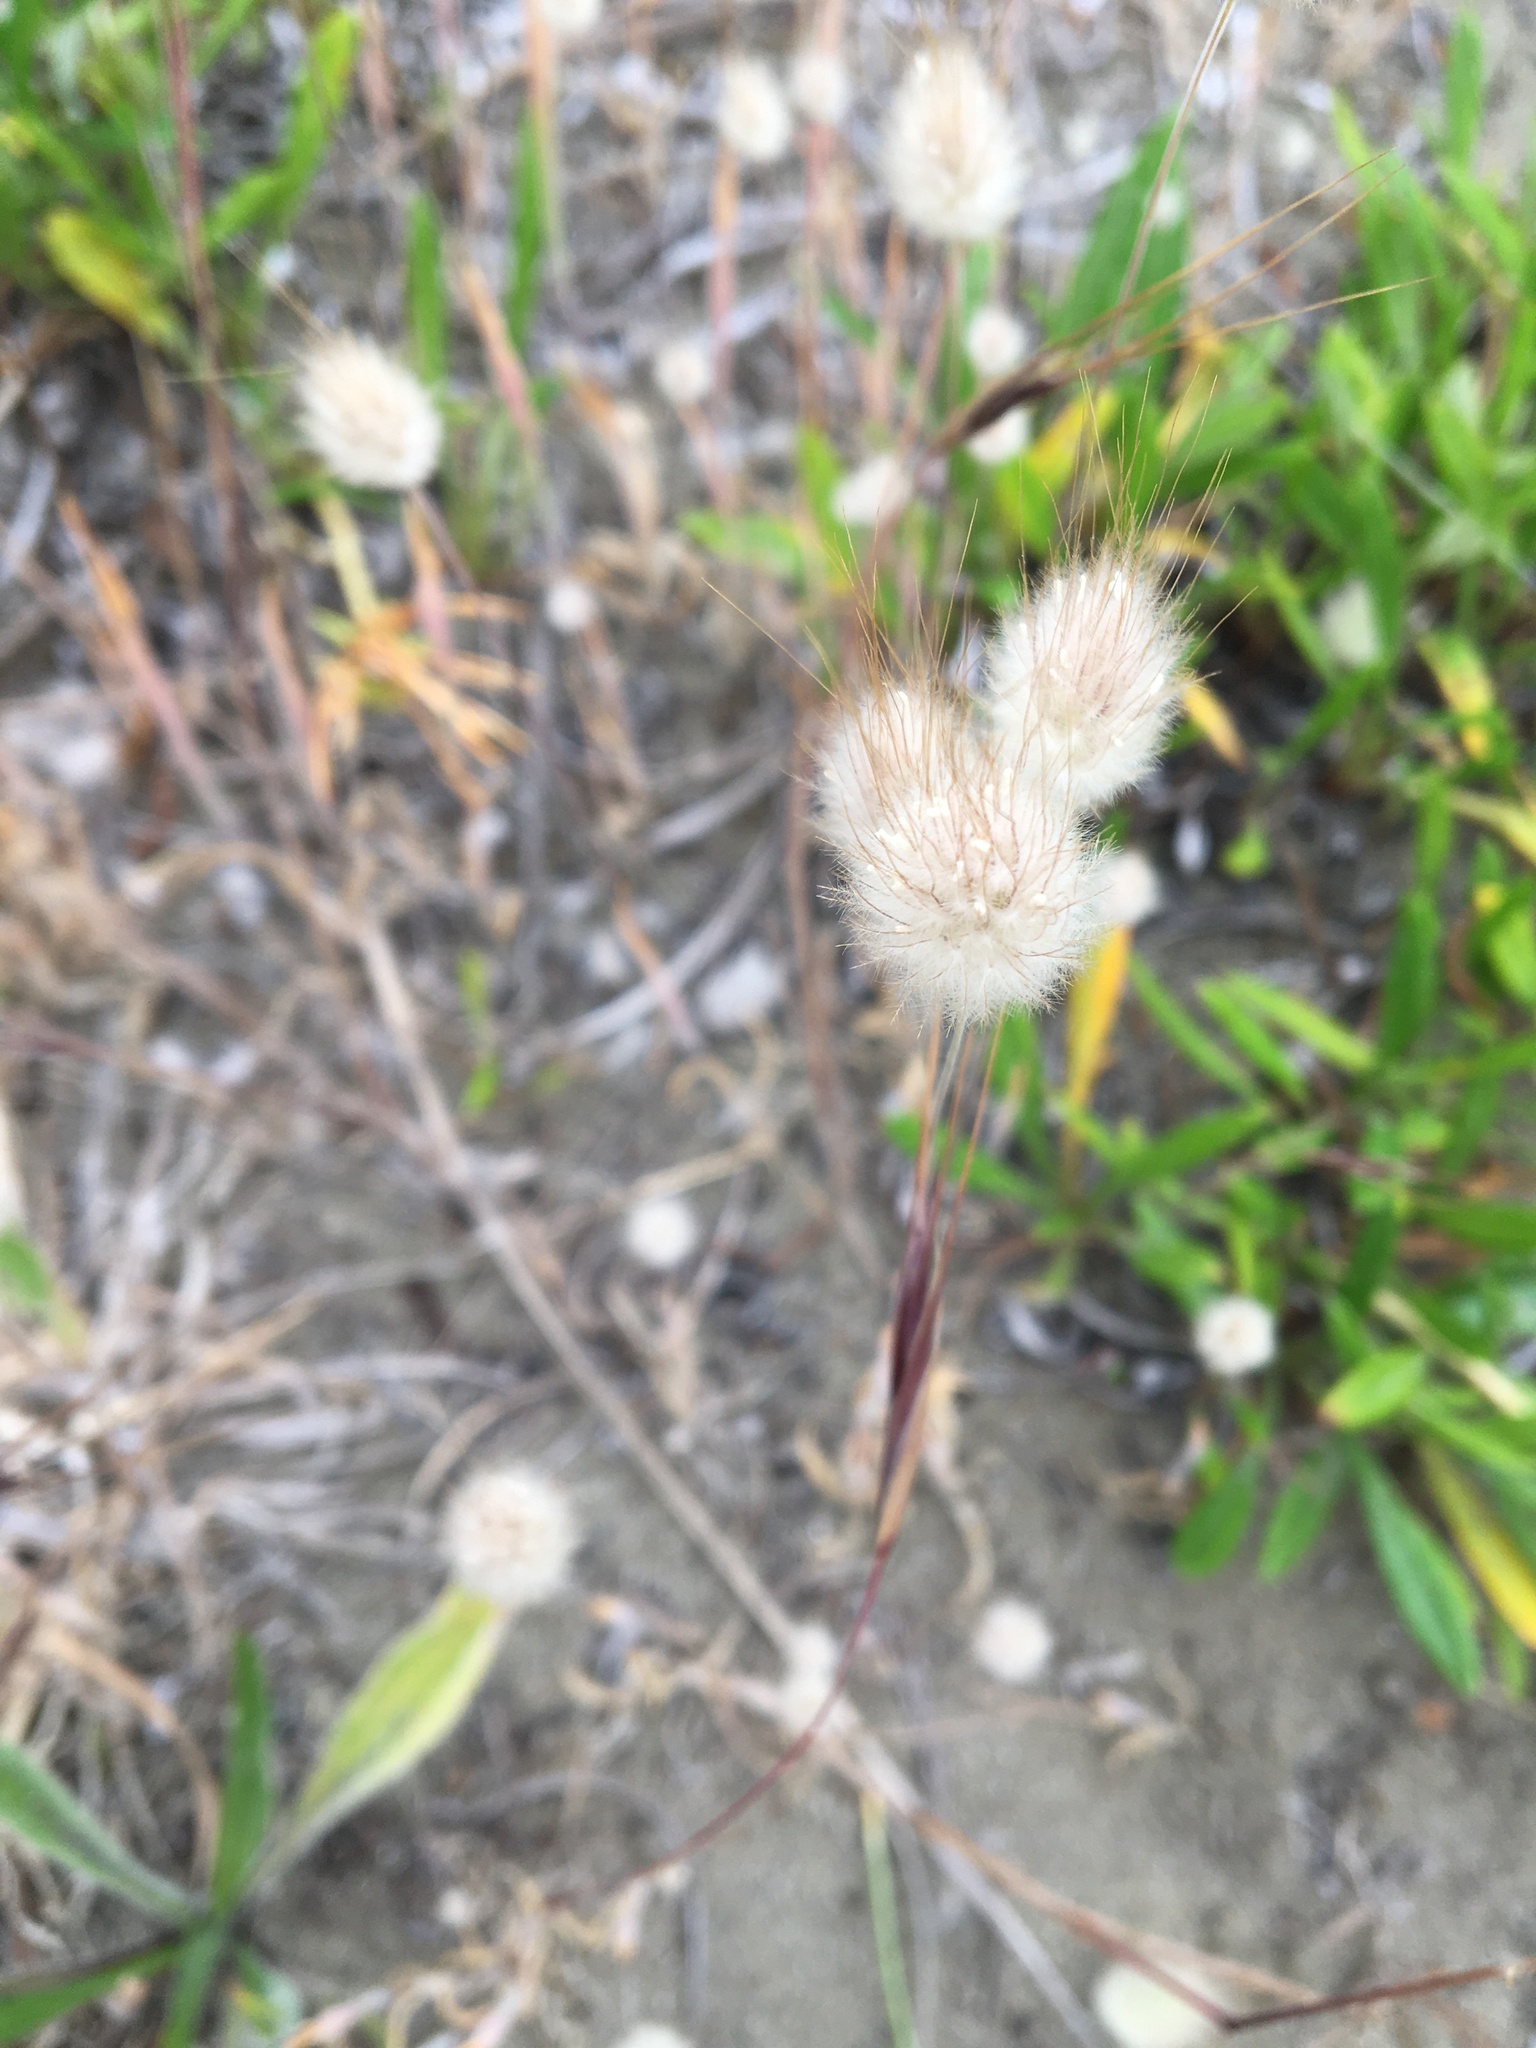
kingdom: Plantae
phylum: Tracheophyta
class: Liliopsida
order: Poales
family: Poaceae
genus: Lagurus
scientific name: Lagurus ovatus
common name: Hare's-tail
